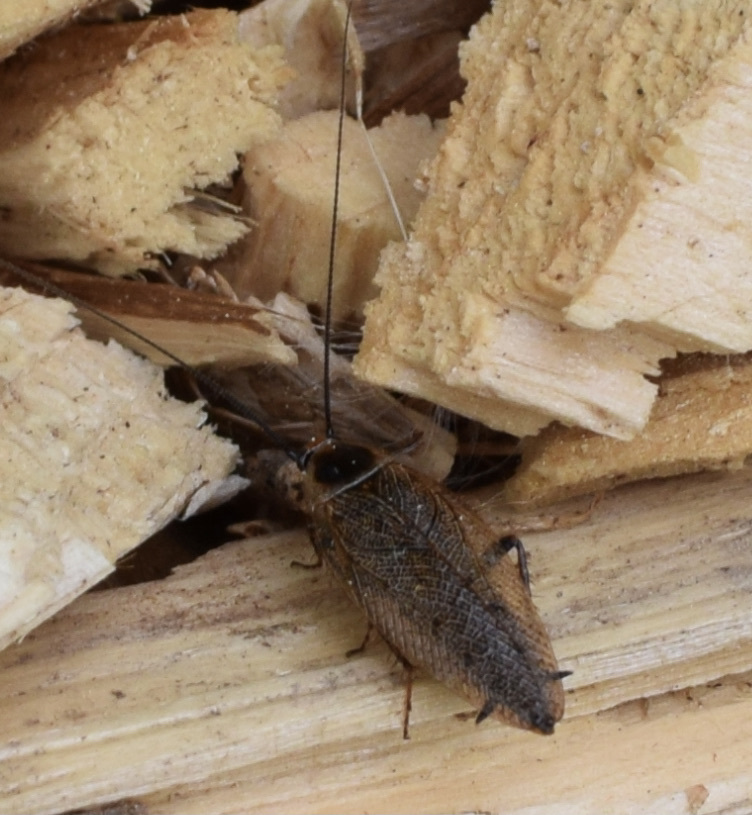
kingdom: Animalia
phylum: Arthropoda
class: Insecta
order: Blattodea
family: Ectobiidae
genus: Ectobius
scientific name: Ectobius lapponicus
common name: Dusky cockroach
